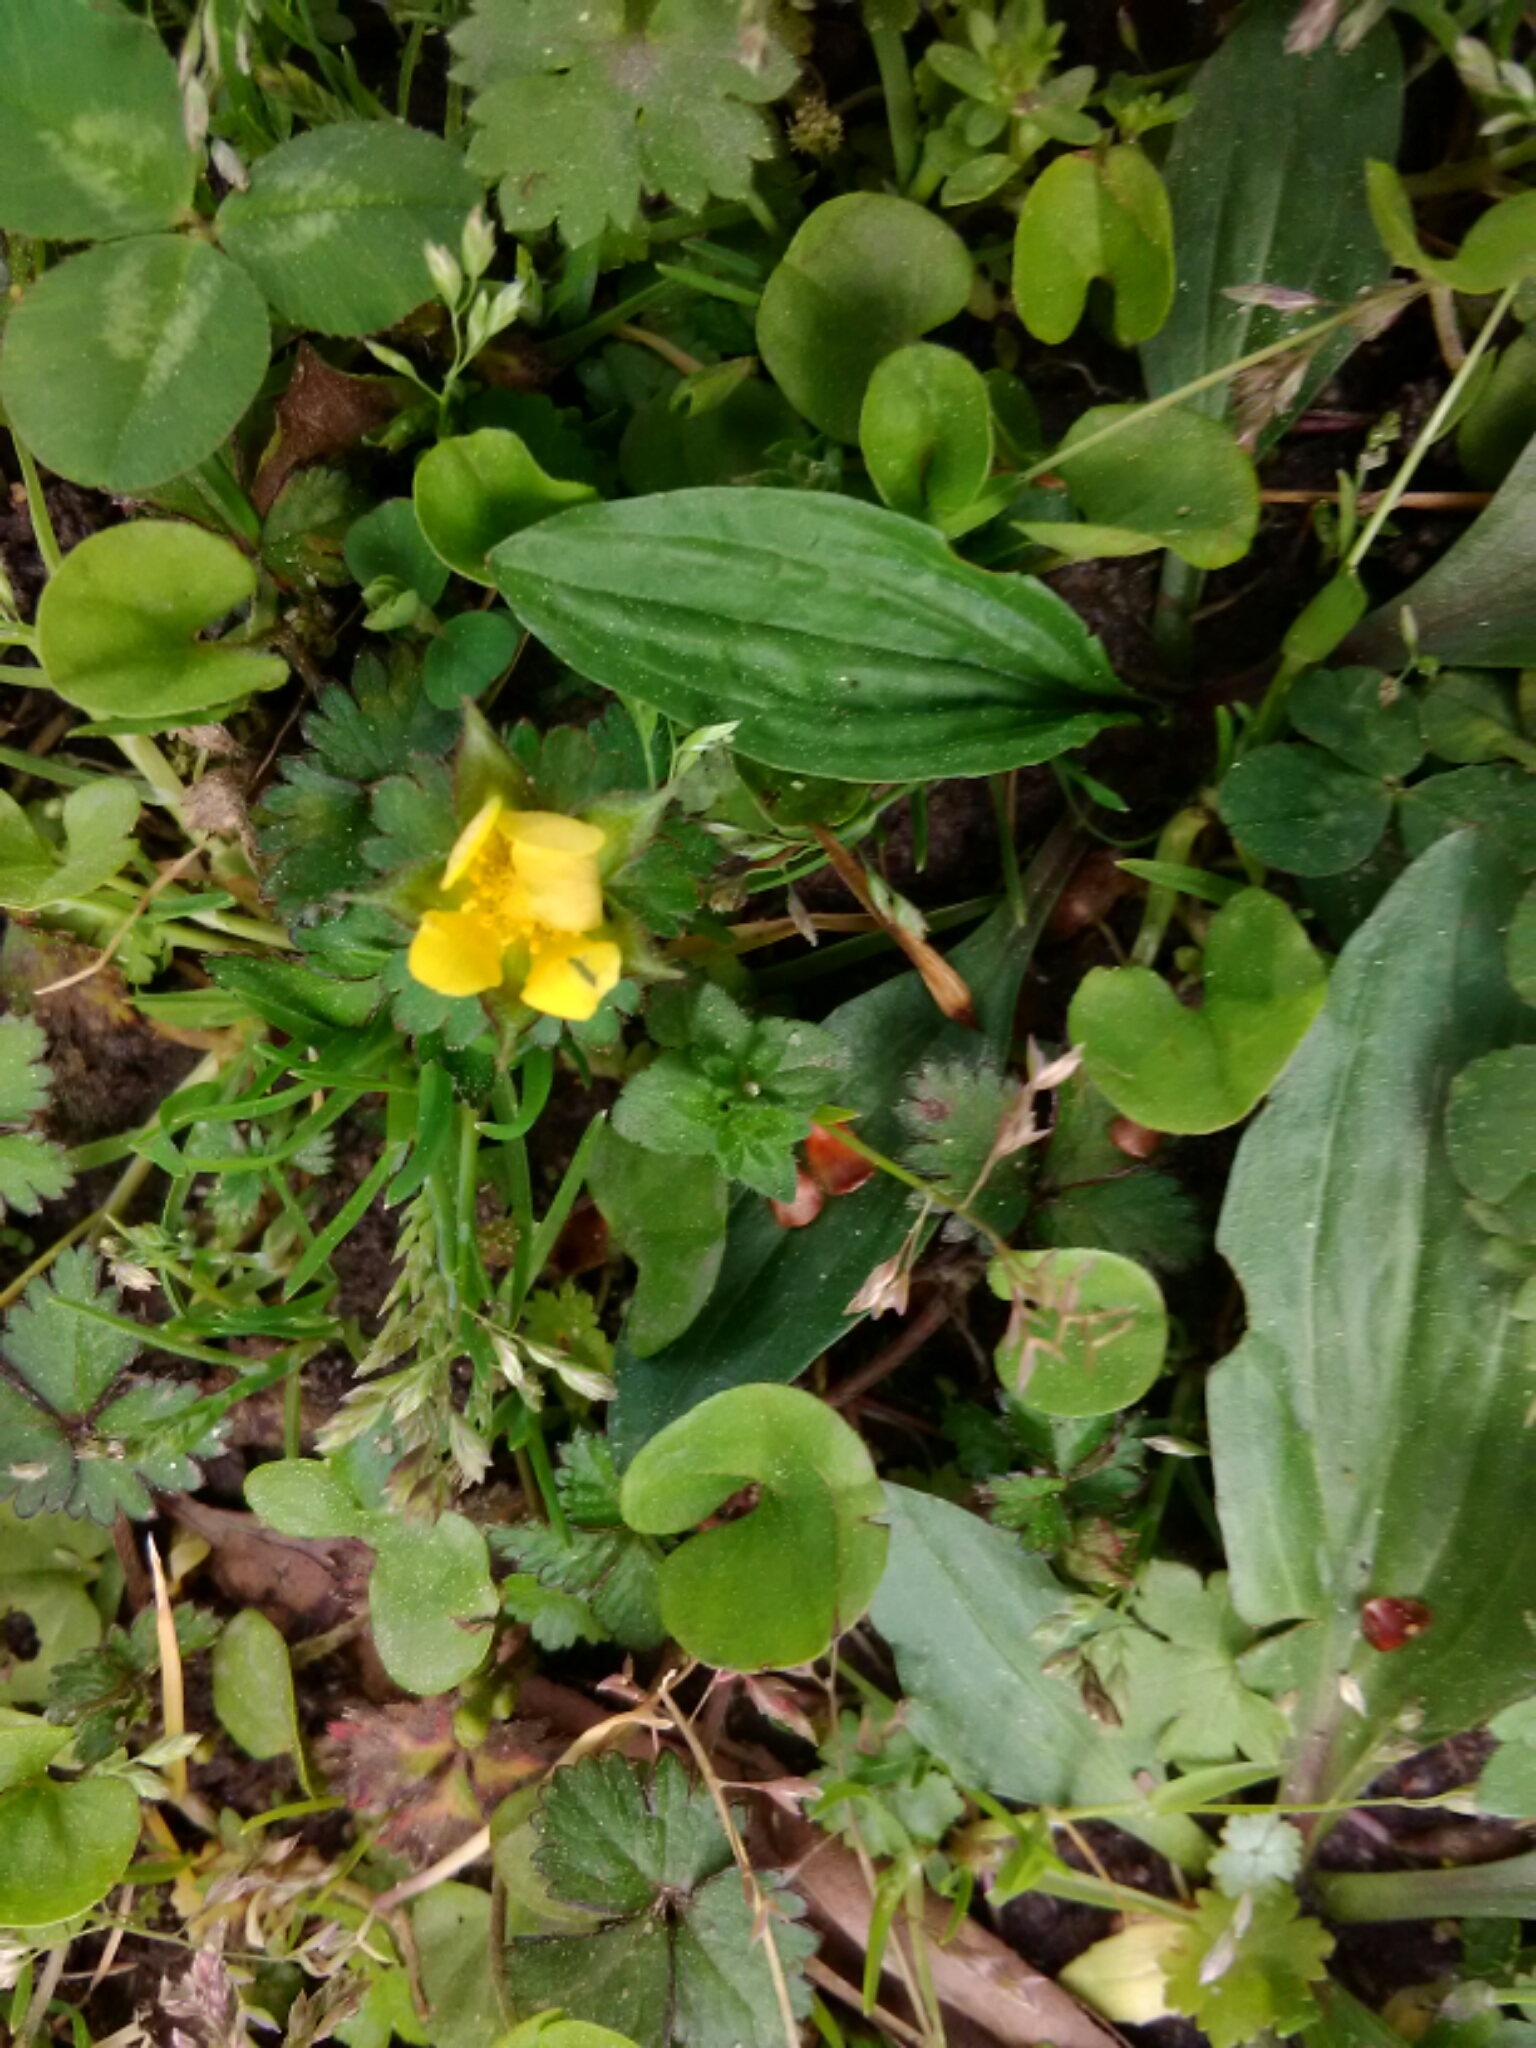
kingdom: Plantae
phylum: Tracheophyta
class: Magnoliopsida
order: Rosales
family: Rosaceae
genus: Potentilla
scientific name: Potentilla indica
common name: Yellow-flowered strawberry
